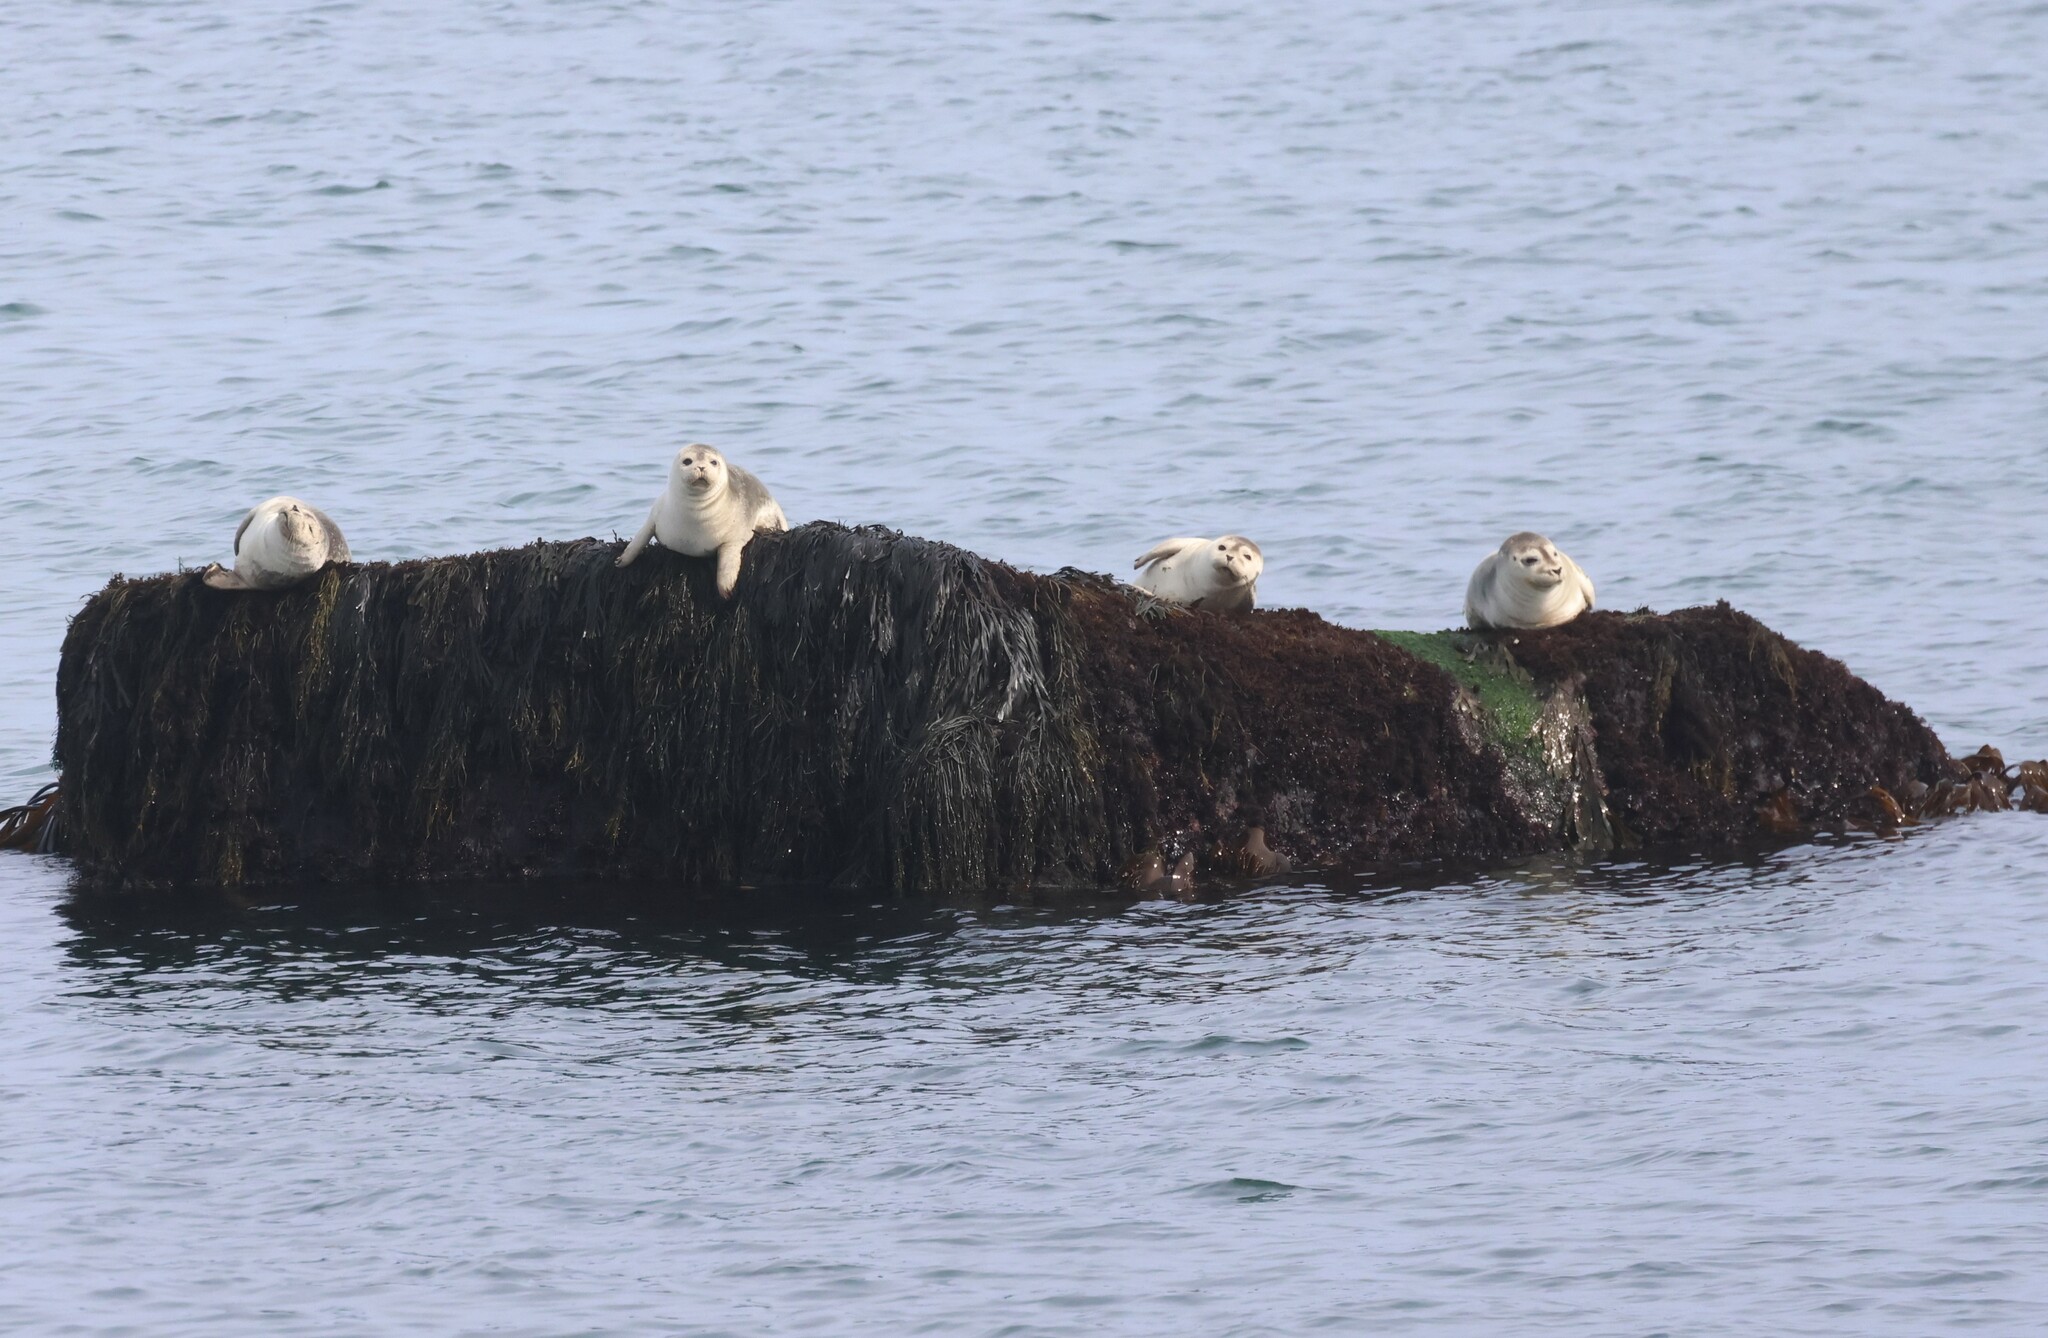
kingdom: Animalia
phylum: Chordata
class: Mammalia
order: Carnivora
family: Phocidae
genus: Phoca
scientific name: Phoca vitulina
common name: Harbor seal
